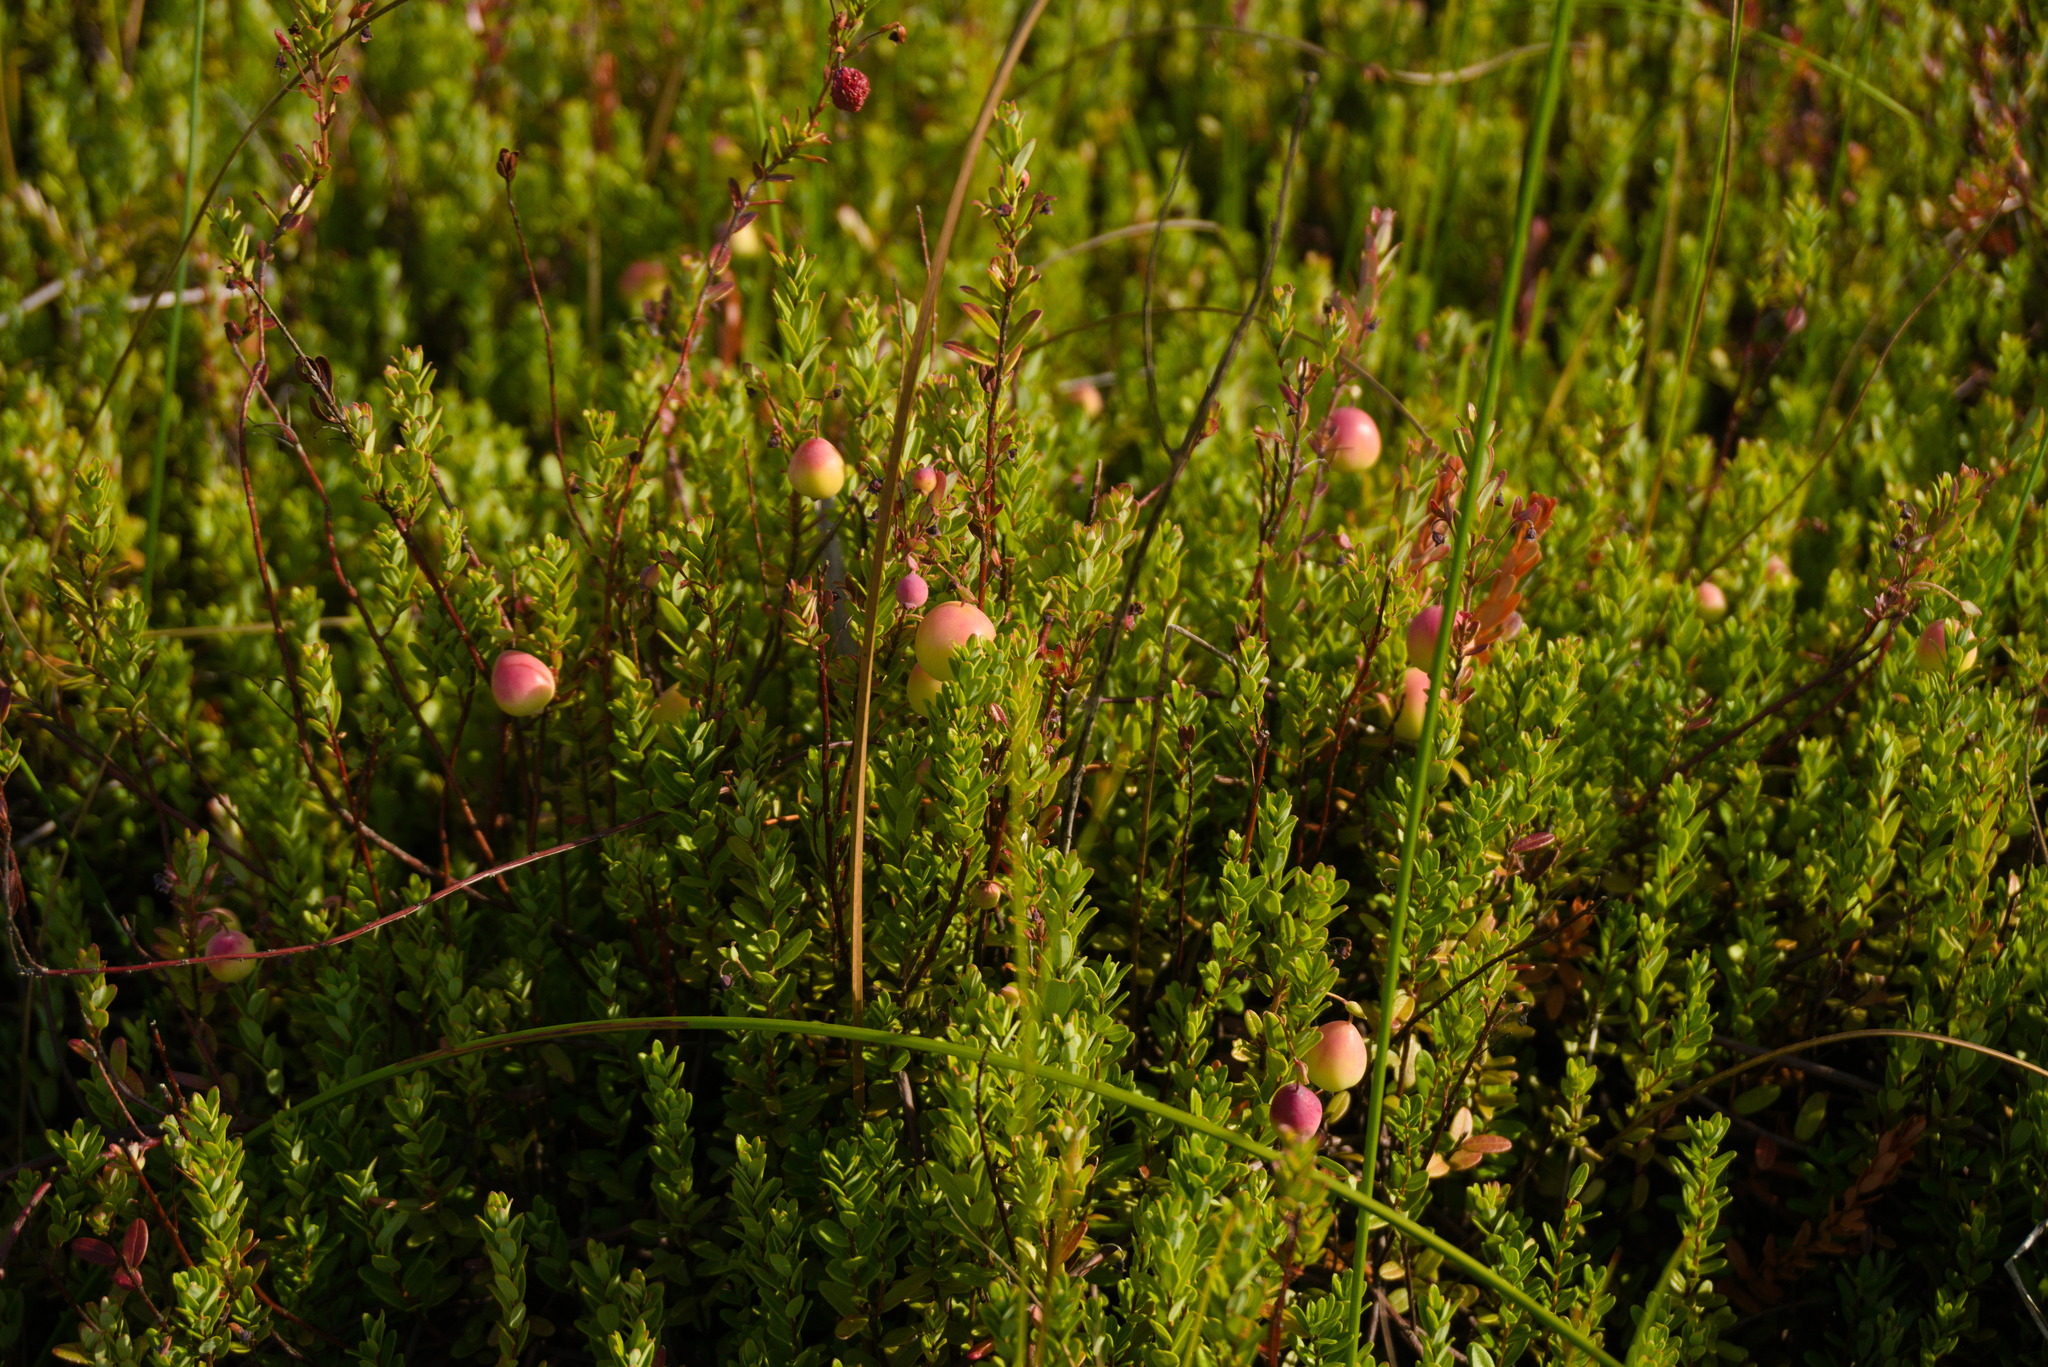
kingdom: Plantae
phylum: Tracheophyta
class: Magnoliopsida
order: Ericales
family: Ericaceae
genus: Vaccinium
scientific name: Vaccinium macrocarpon
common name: American cranberry
